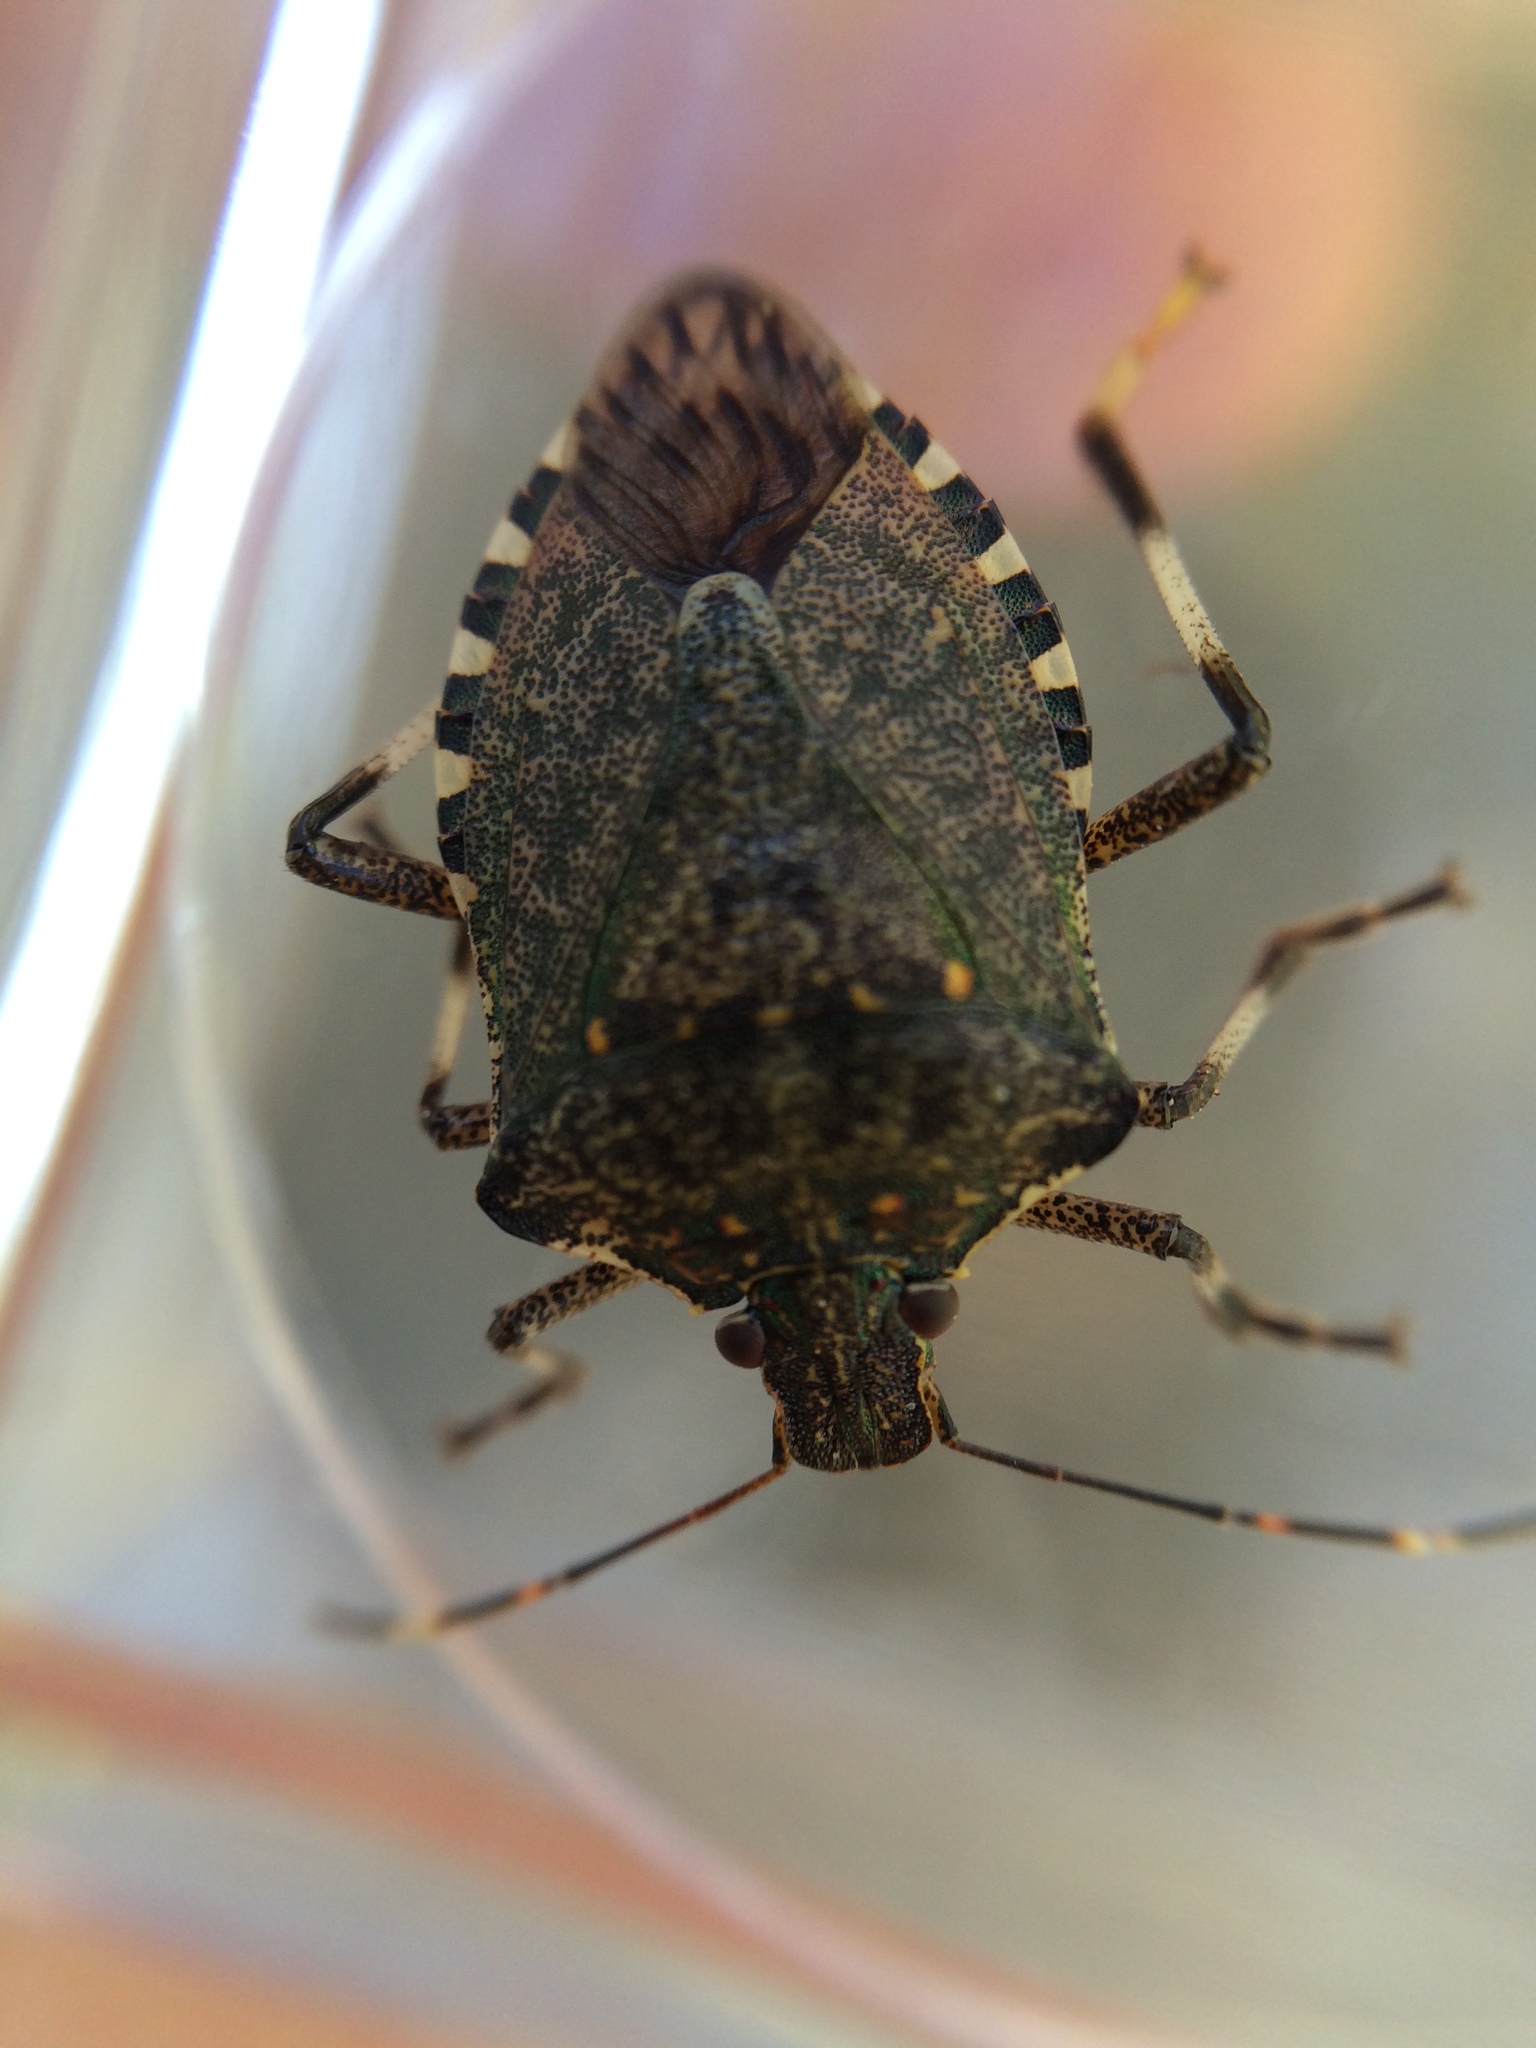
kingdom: Animalia
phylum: Arthropoda
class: Insecta
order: Hemiptera
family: Pentatomidae
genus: Halyomorpha
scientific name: Halyomorpha halys
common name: Brown marmorated stink bug
